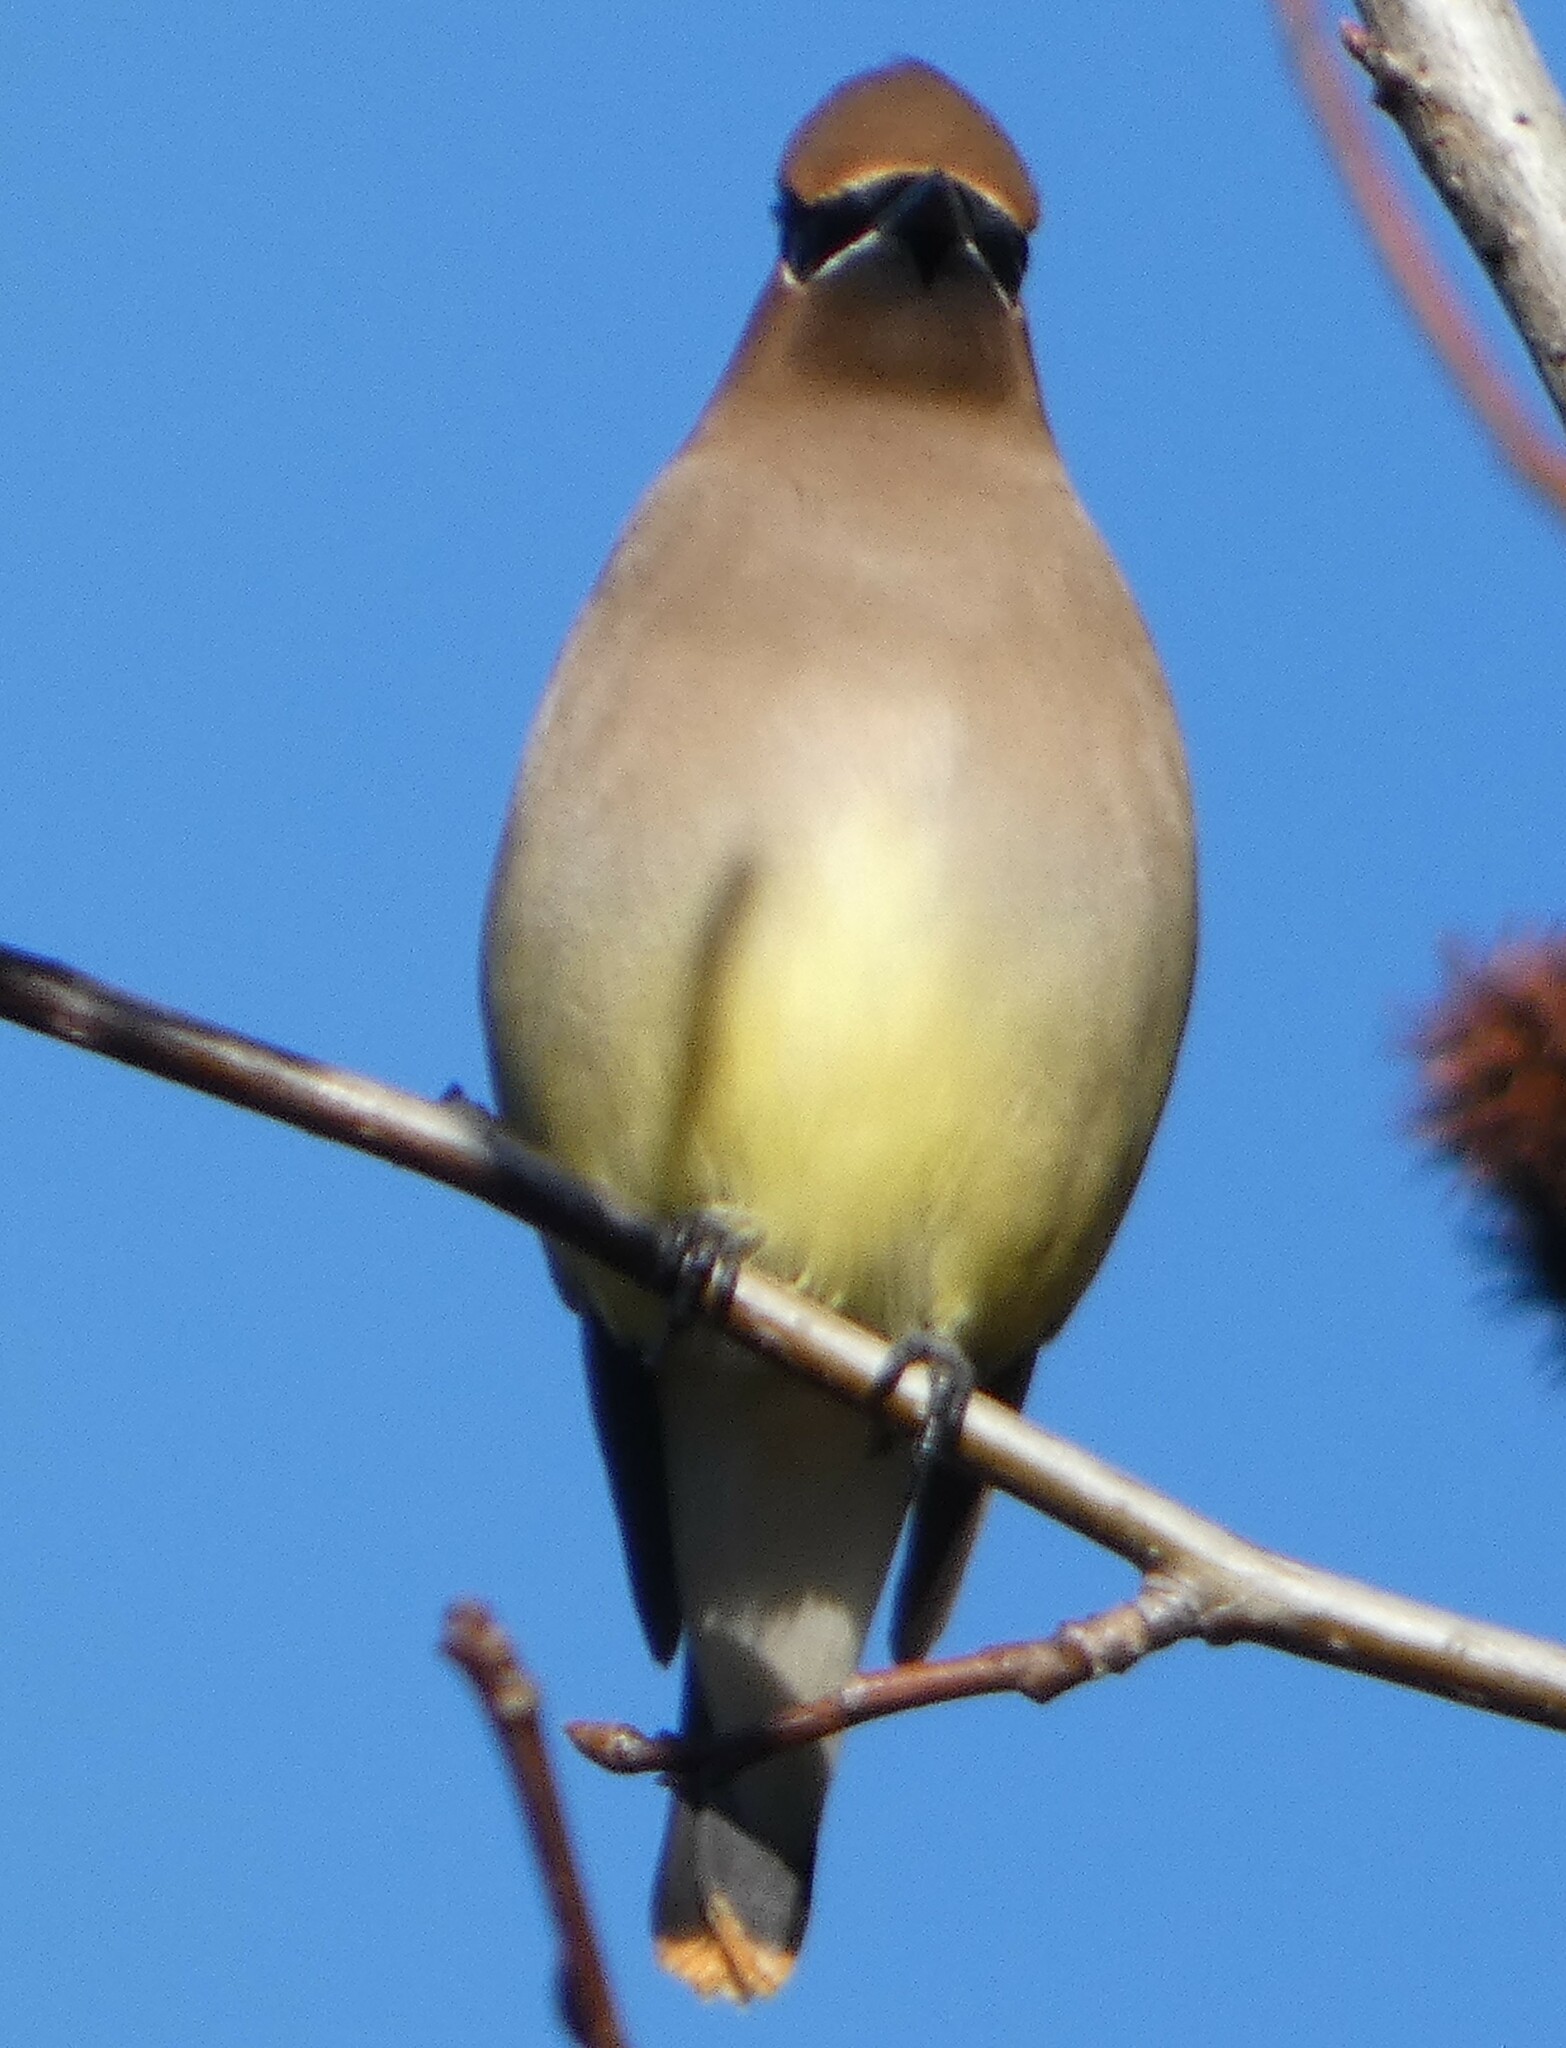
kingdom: Animalia
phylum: Chordata
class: Aves
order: Passeriformes
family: Bombycillidae
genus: Bombycilla
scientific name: Bombycilla cedrorum
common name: Cedar waxwing
